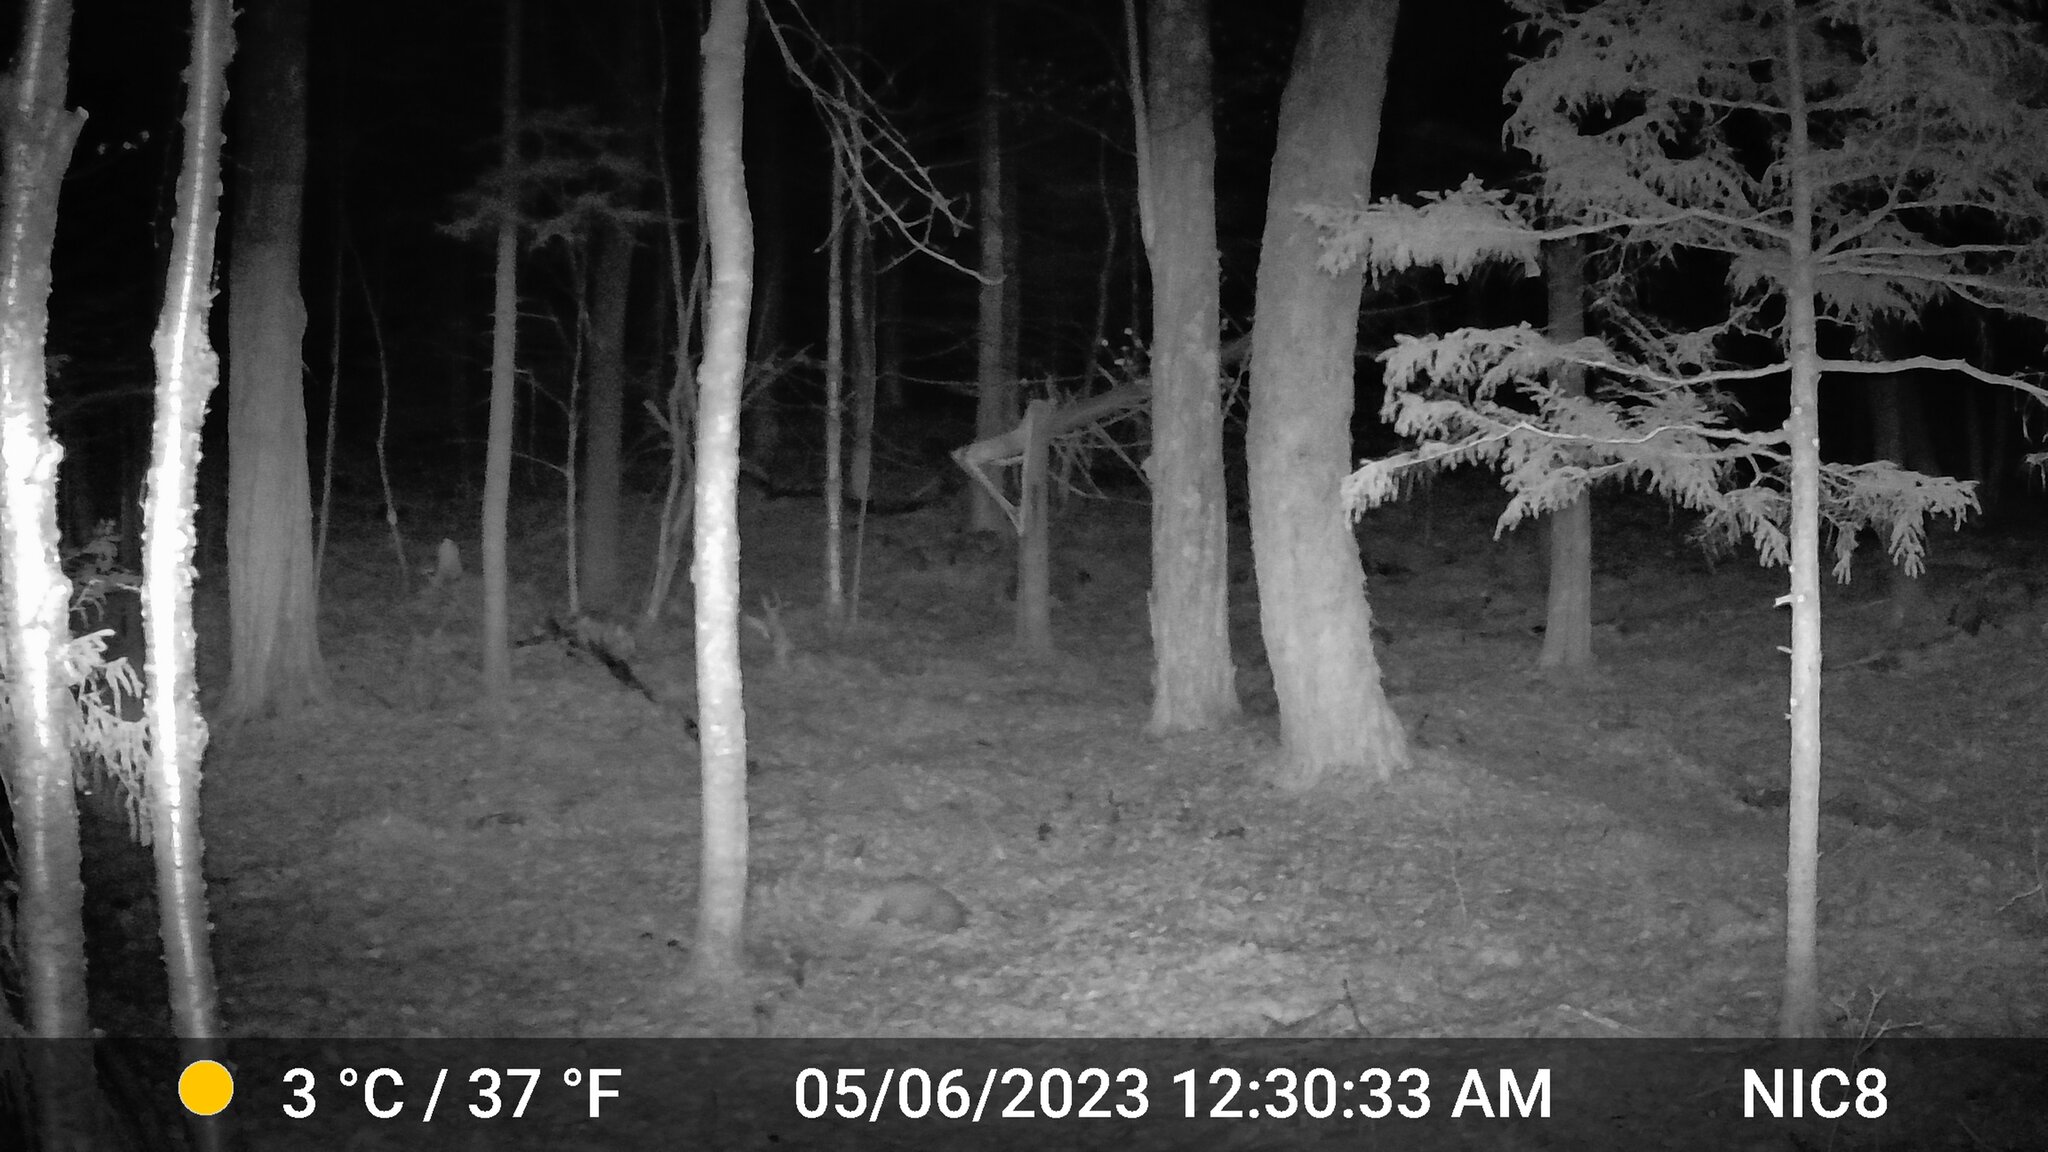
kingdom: Animalia
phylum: Chordata
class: Mammalia
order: Artiodactyla
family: Cervidae
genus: Odocoileus
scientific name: Odocoileus virginianus
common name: White-tailed deer
